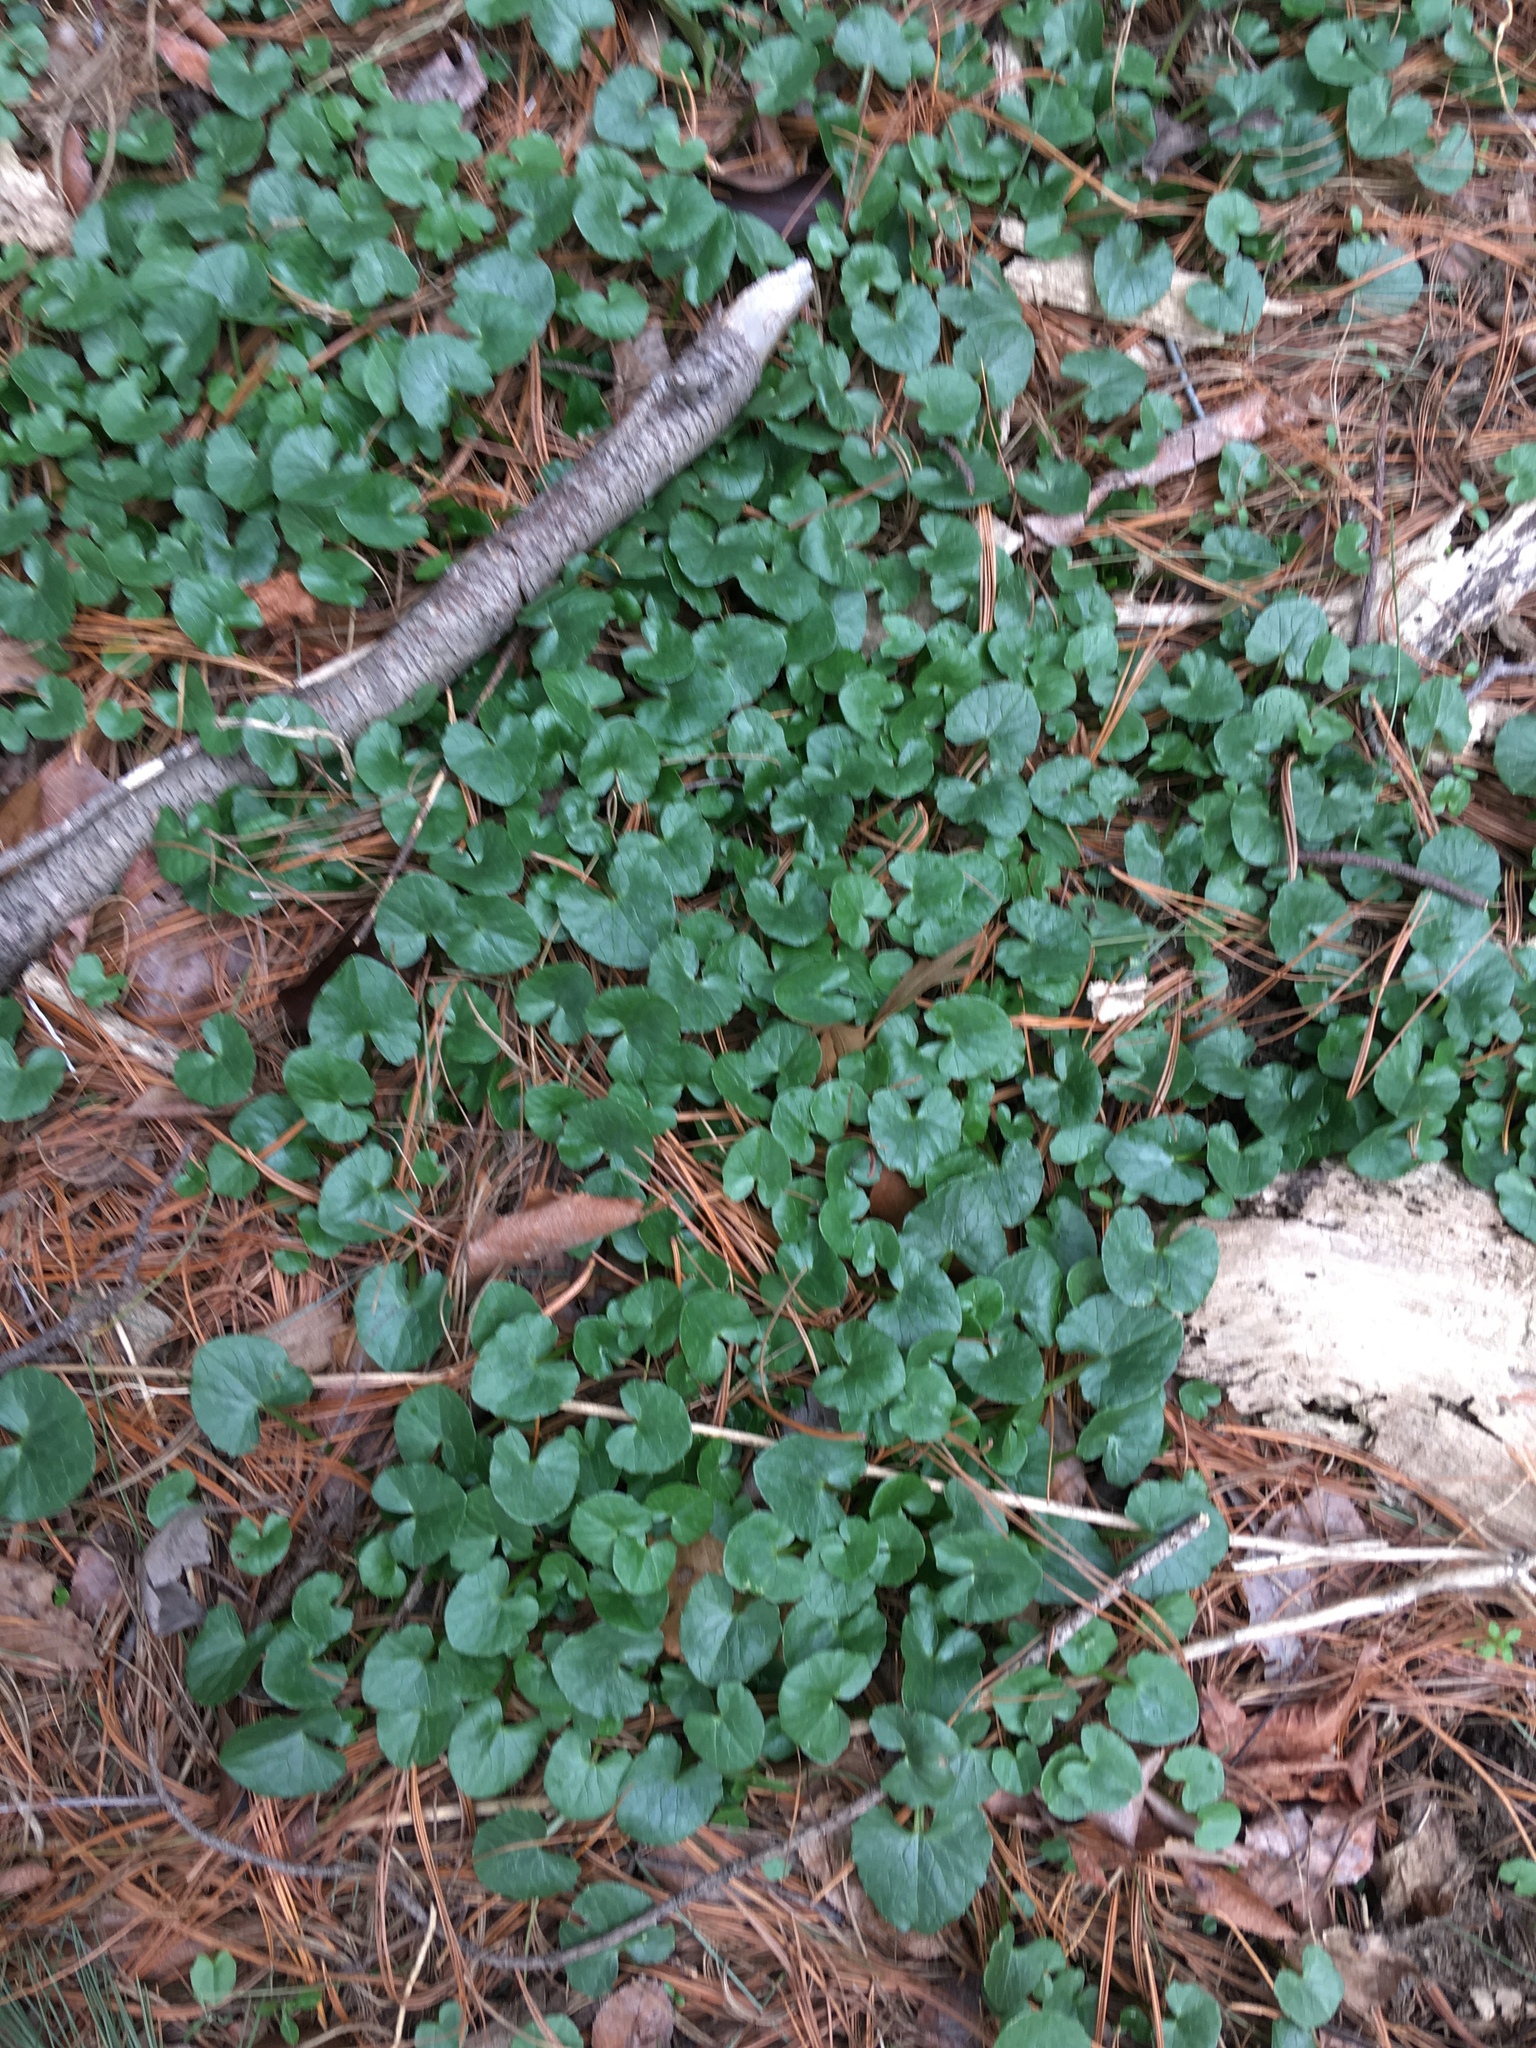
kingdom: Plantae
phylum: Tracheophyta
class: Magnoliopsida
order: Ranunculales
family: Ranunculaceae
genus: Ficaria
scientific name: Ficaria verna
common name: Lesser celandine
